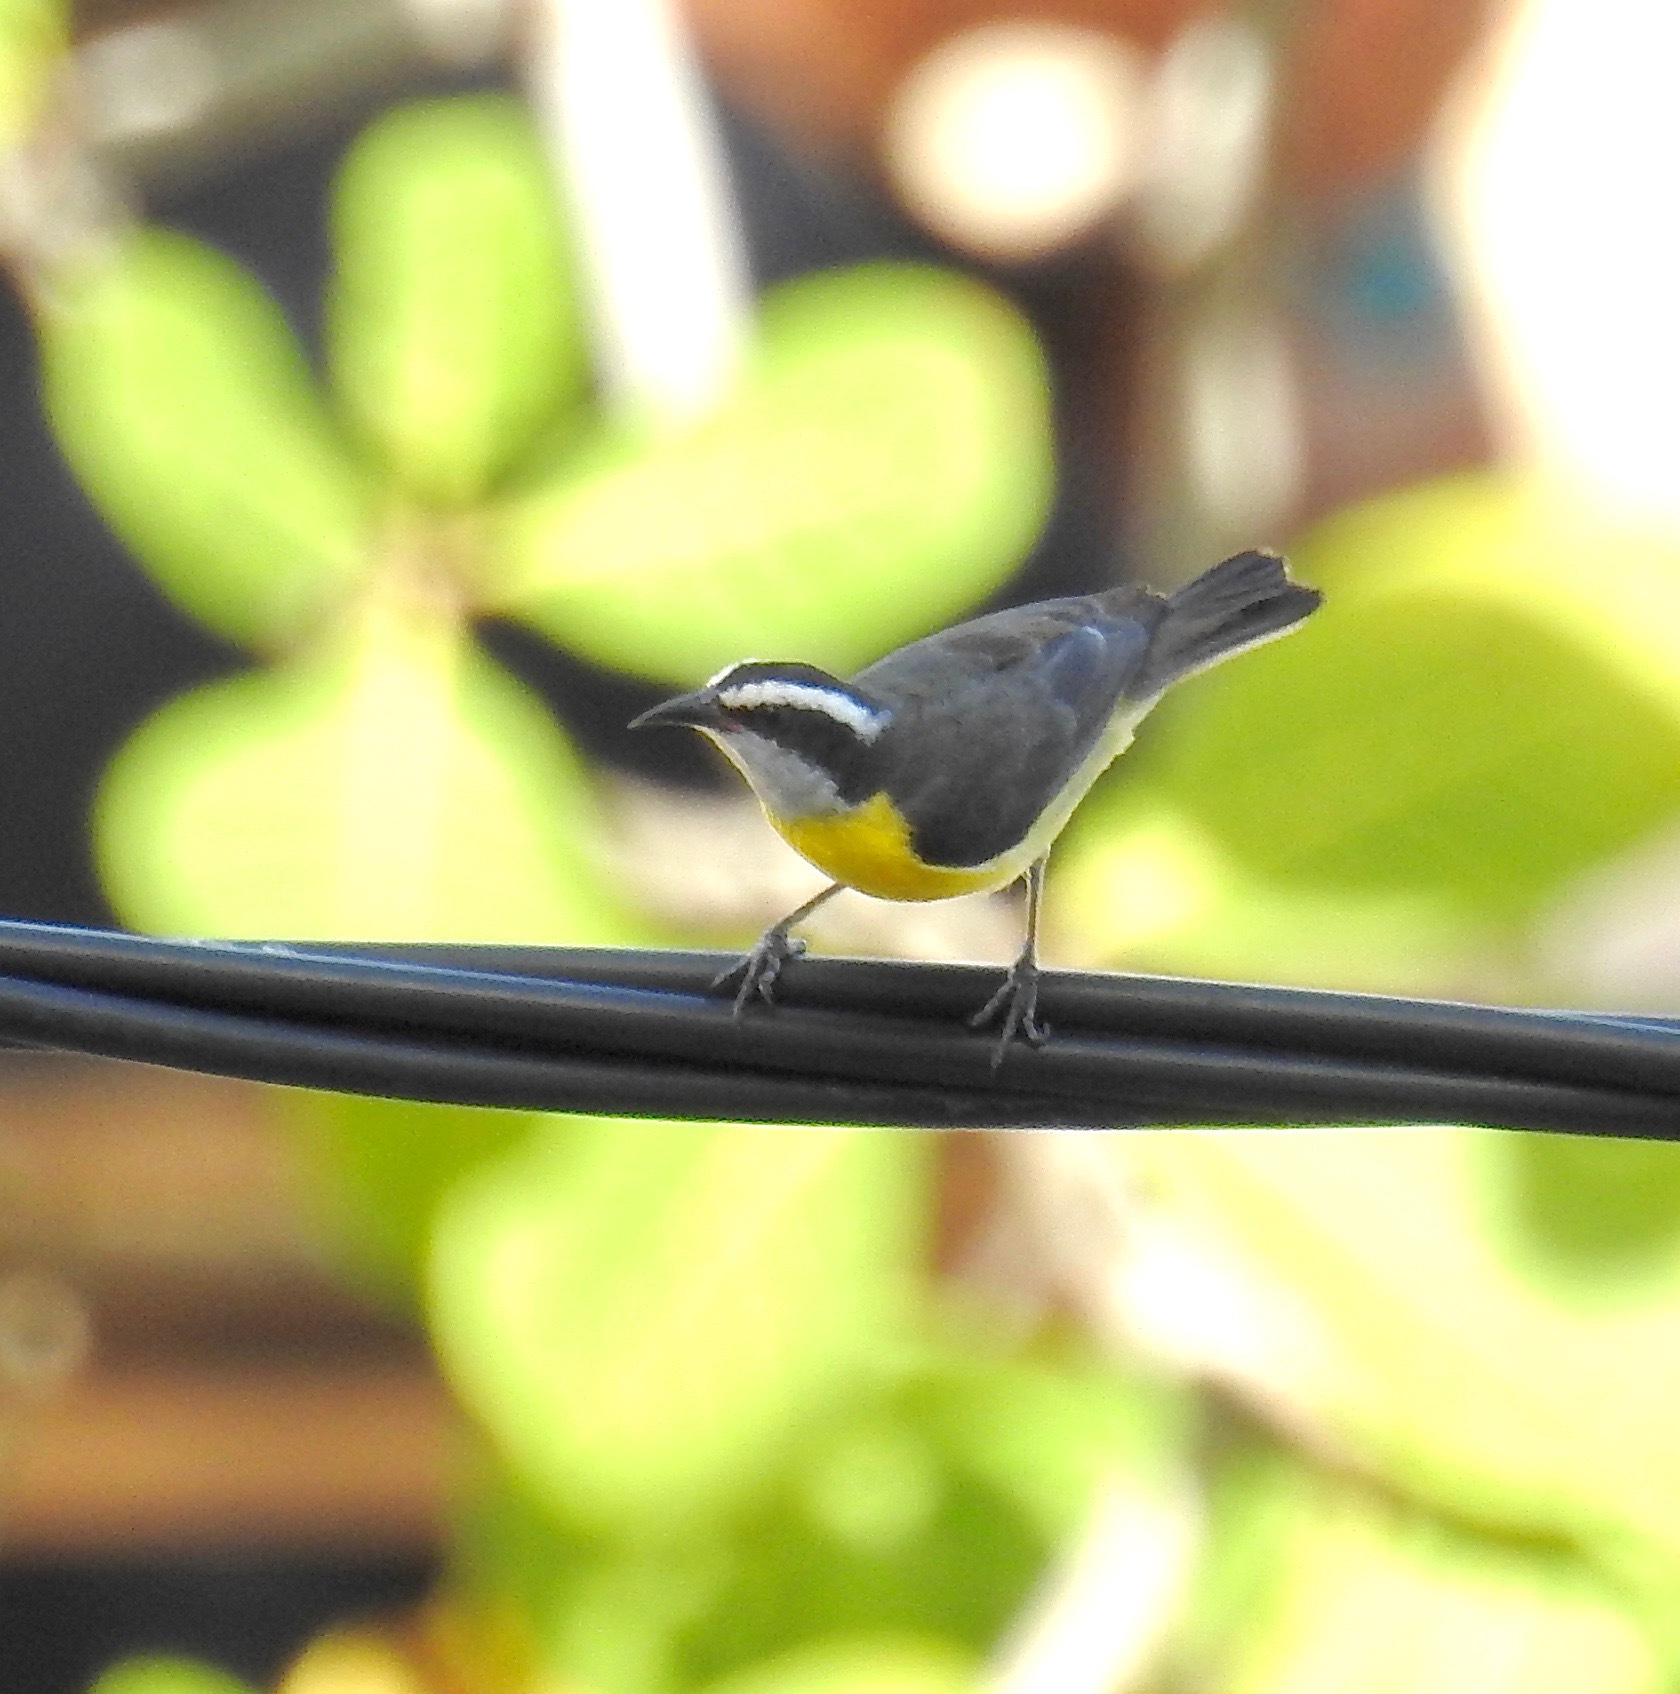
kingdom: Animalia
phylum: Chordata
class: Aves
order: Passeriformes
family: Thraupidae
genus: Coereba
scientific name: Coereba flaveola
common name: Bananaquit
